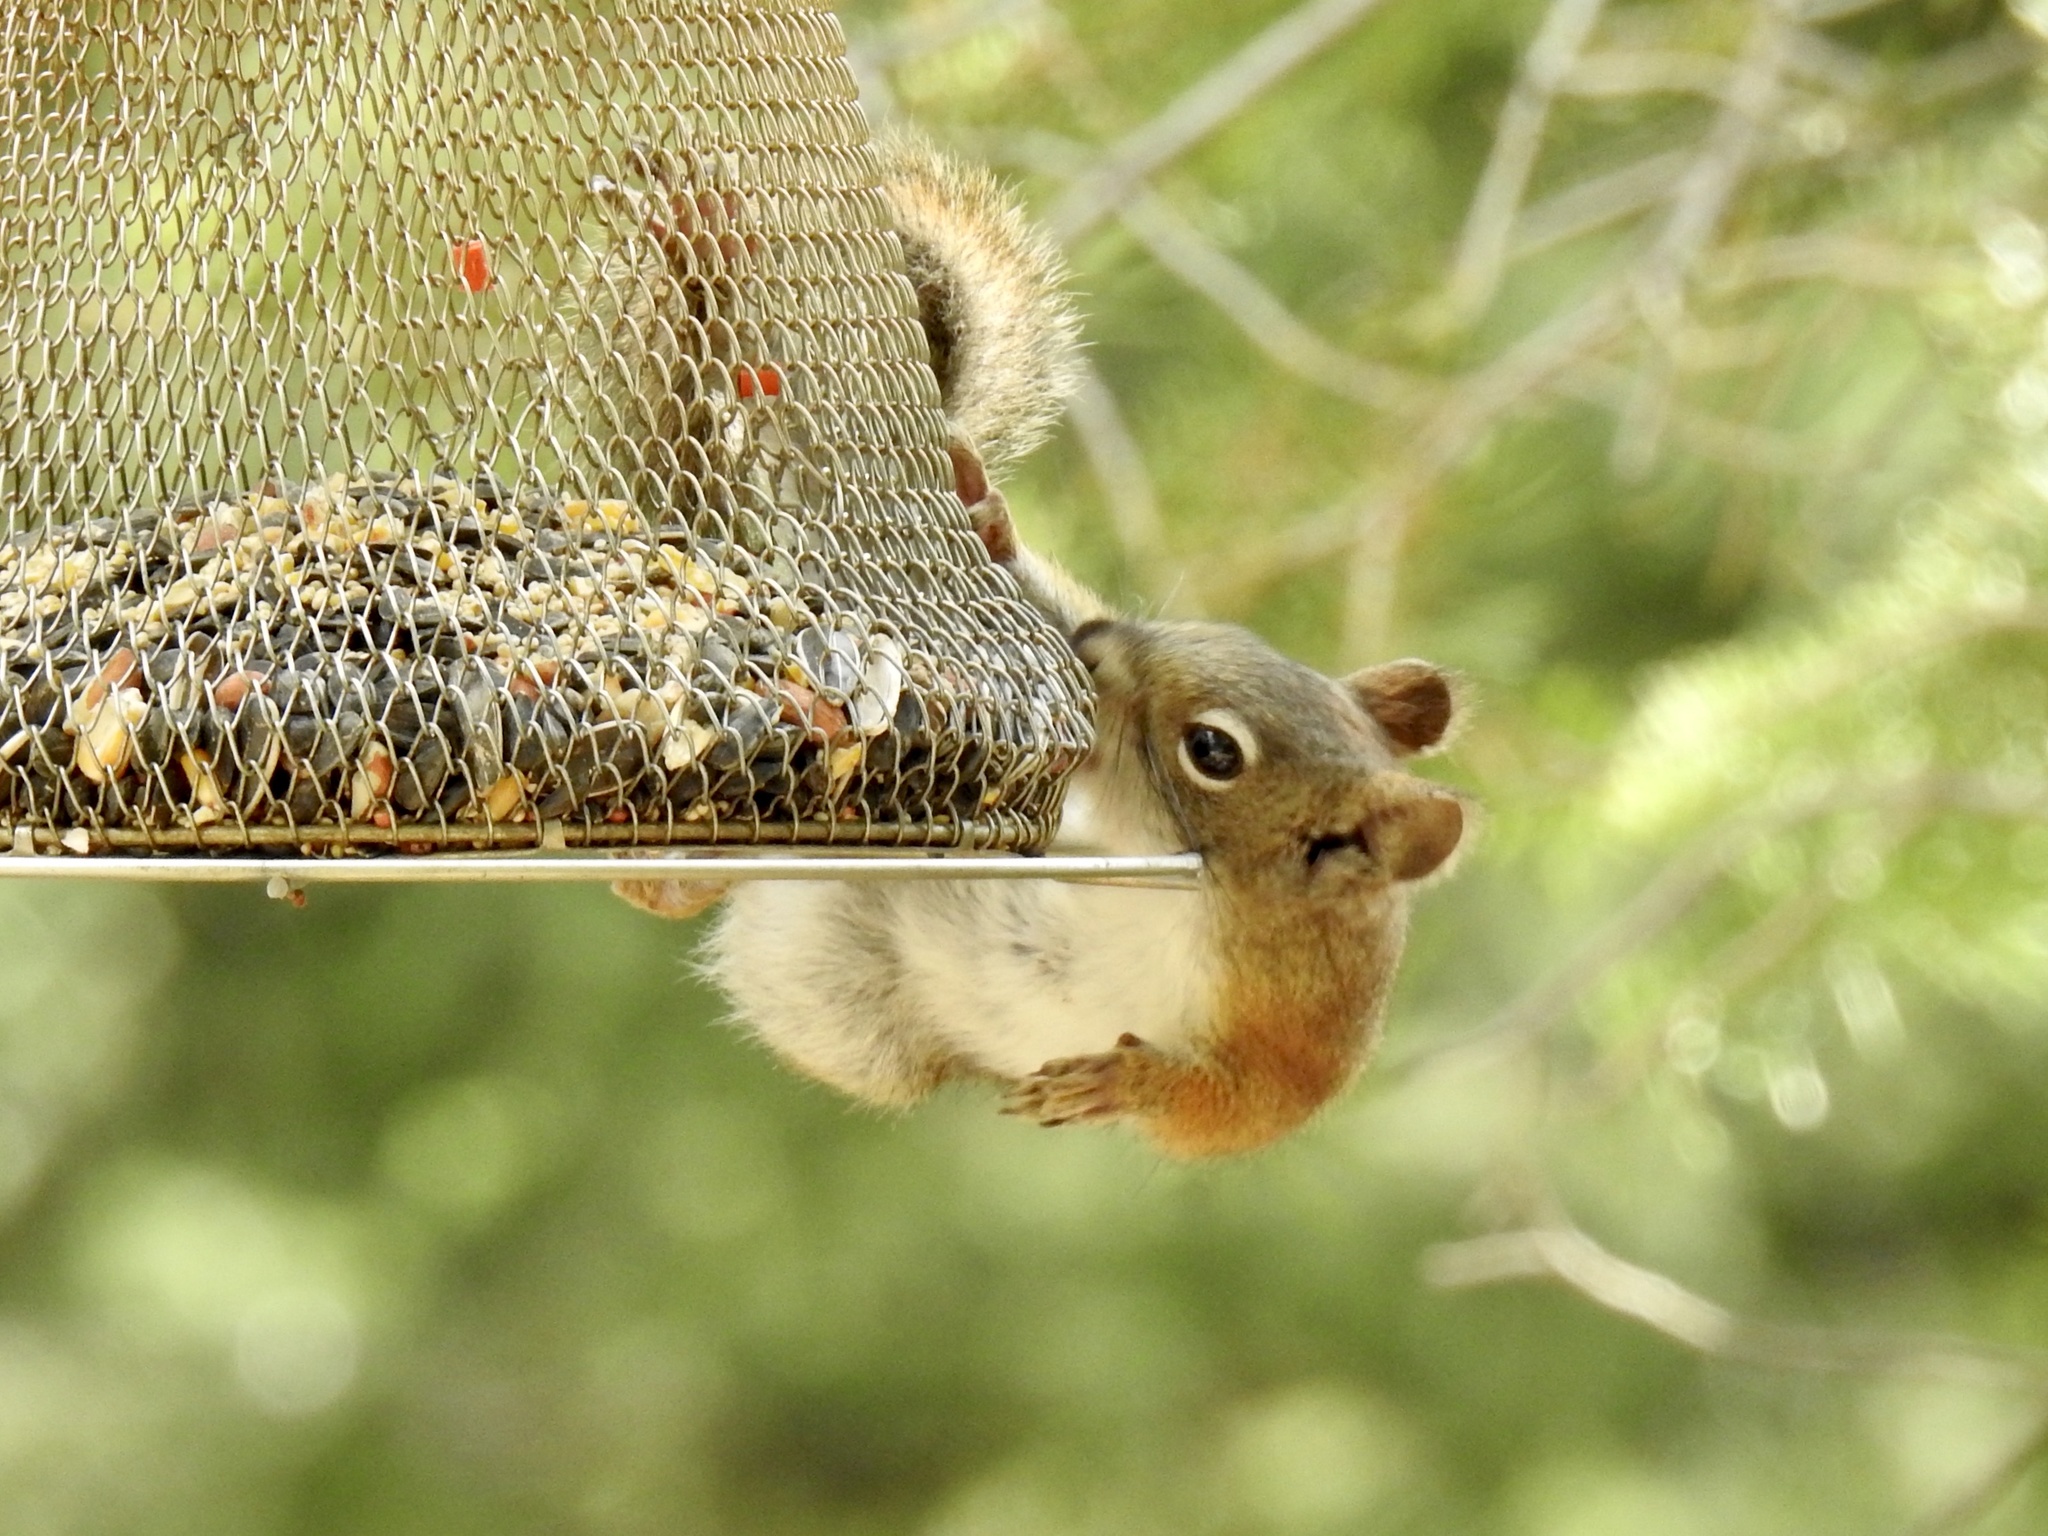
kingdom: Animalia
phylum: Chordata
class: Mammalia
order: Rodentia
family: Sciuridae
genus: Tamiasciurus
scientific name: Tamiasciurus hudsonicus
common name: Red squirrel
